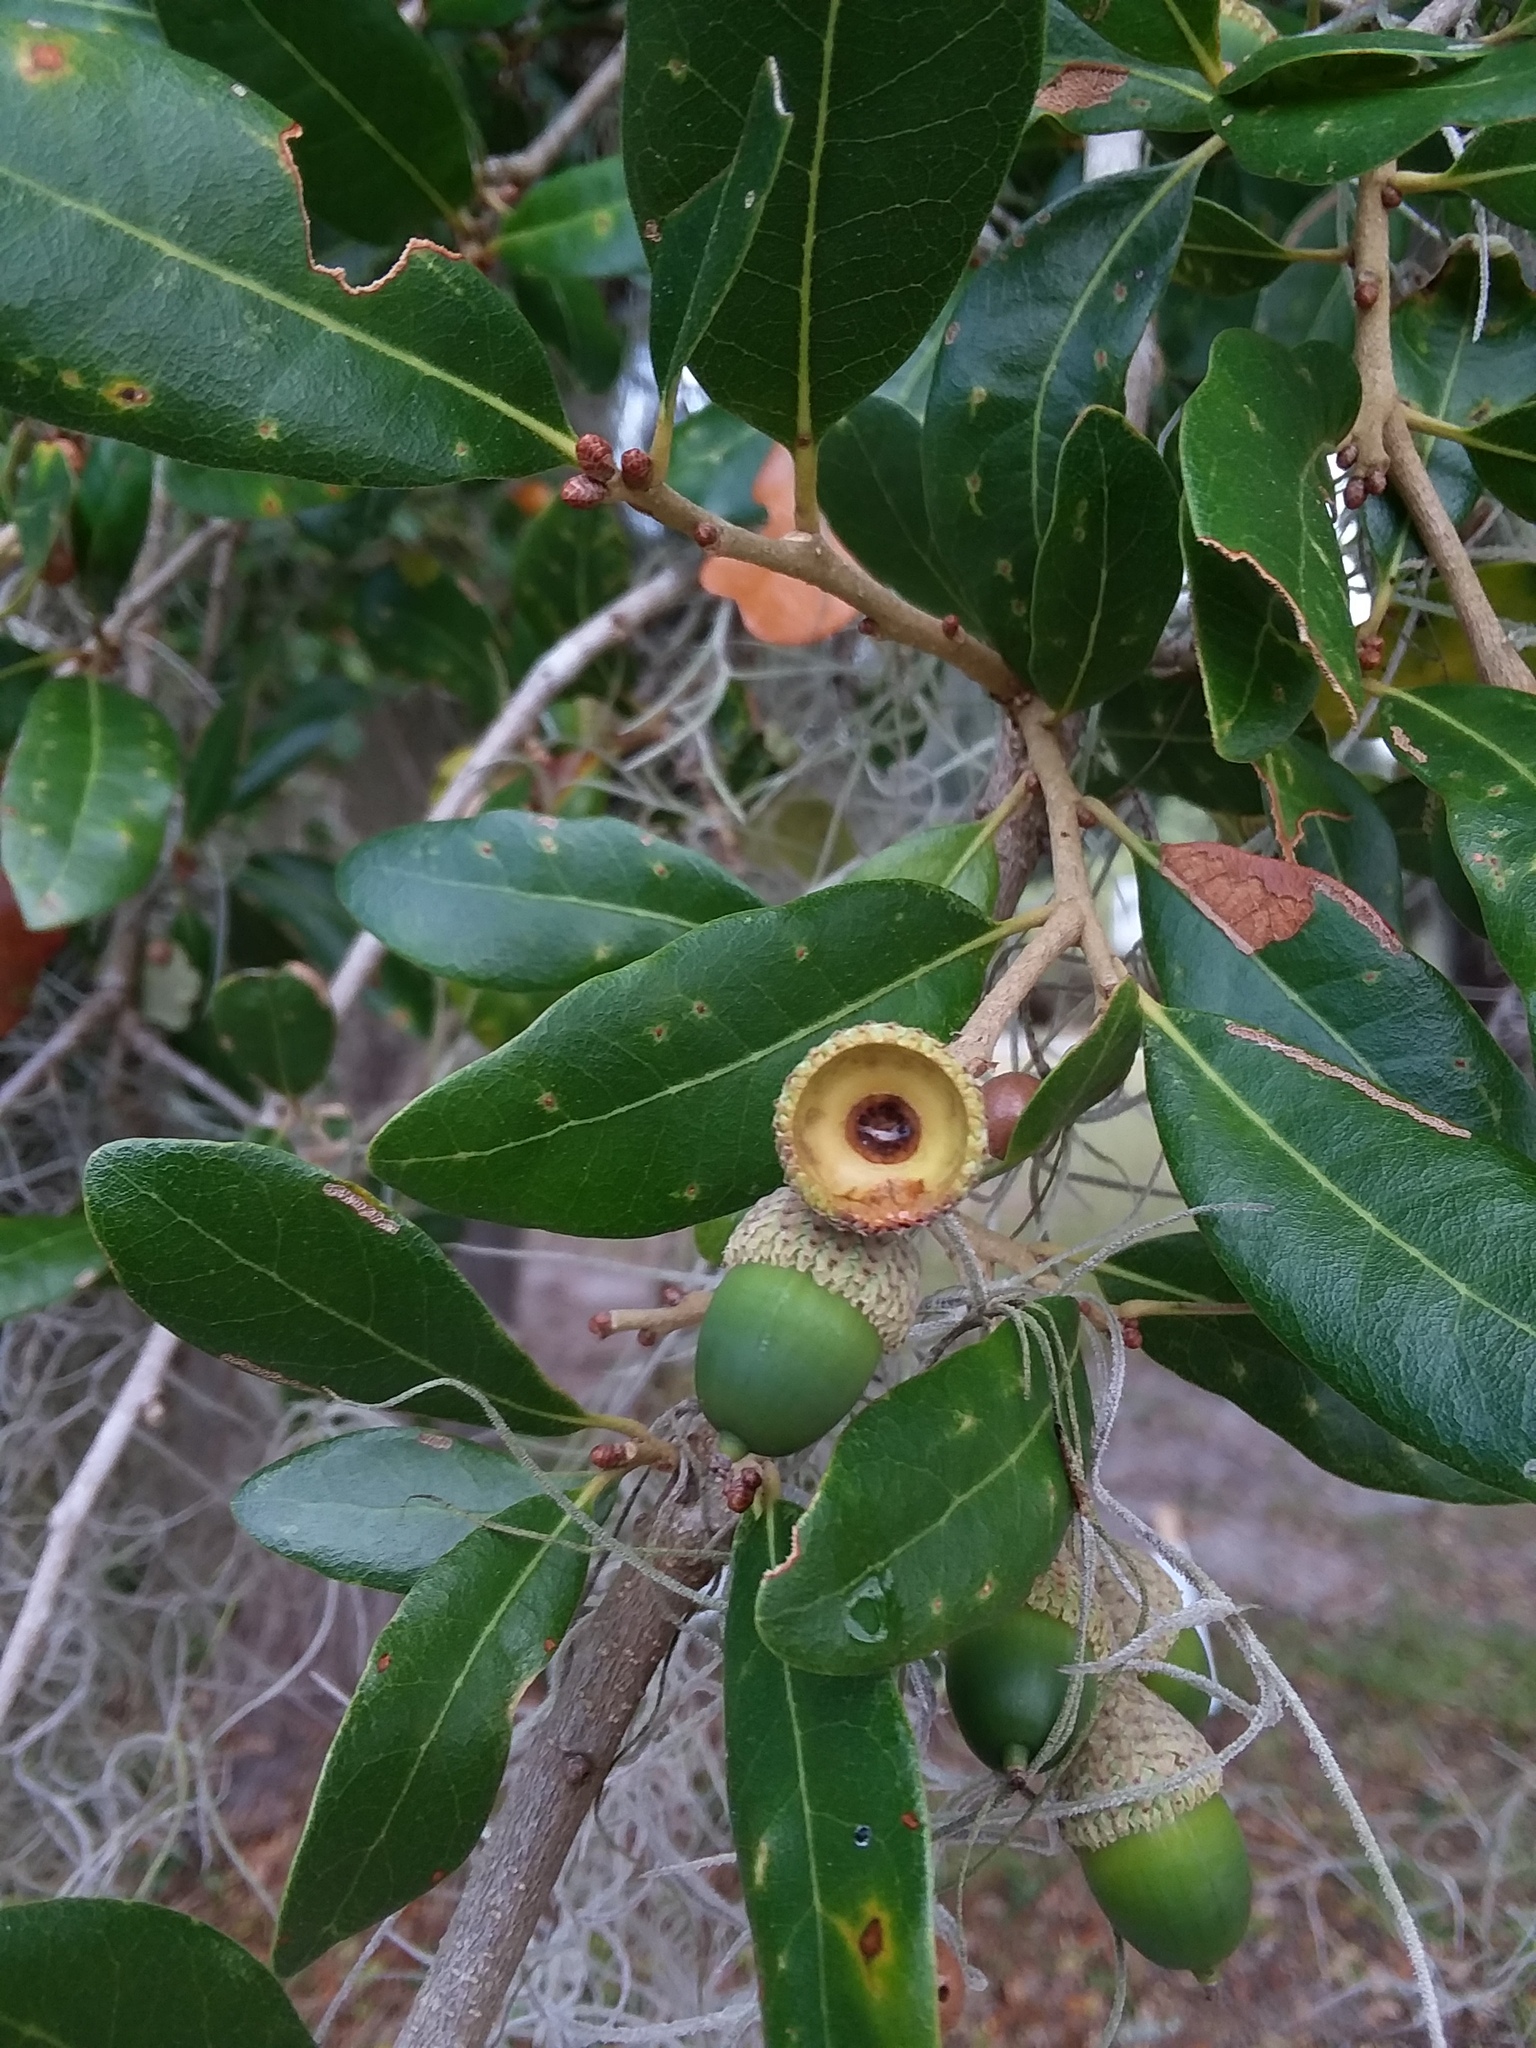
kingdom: Animalia
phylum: Arthropoda
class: Insecta
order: Hymenoptera
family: Cynipidae
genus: Belonocnema
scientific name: Belonocnema treatae
